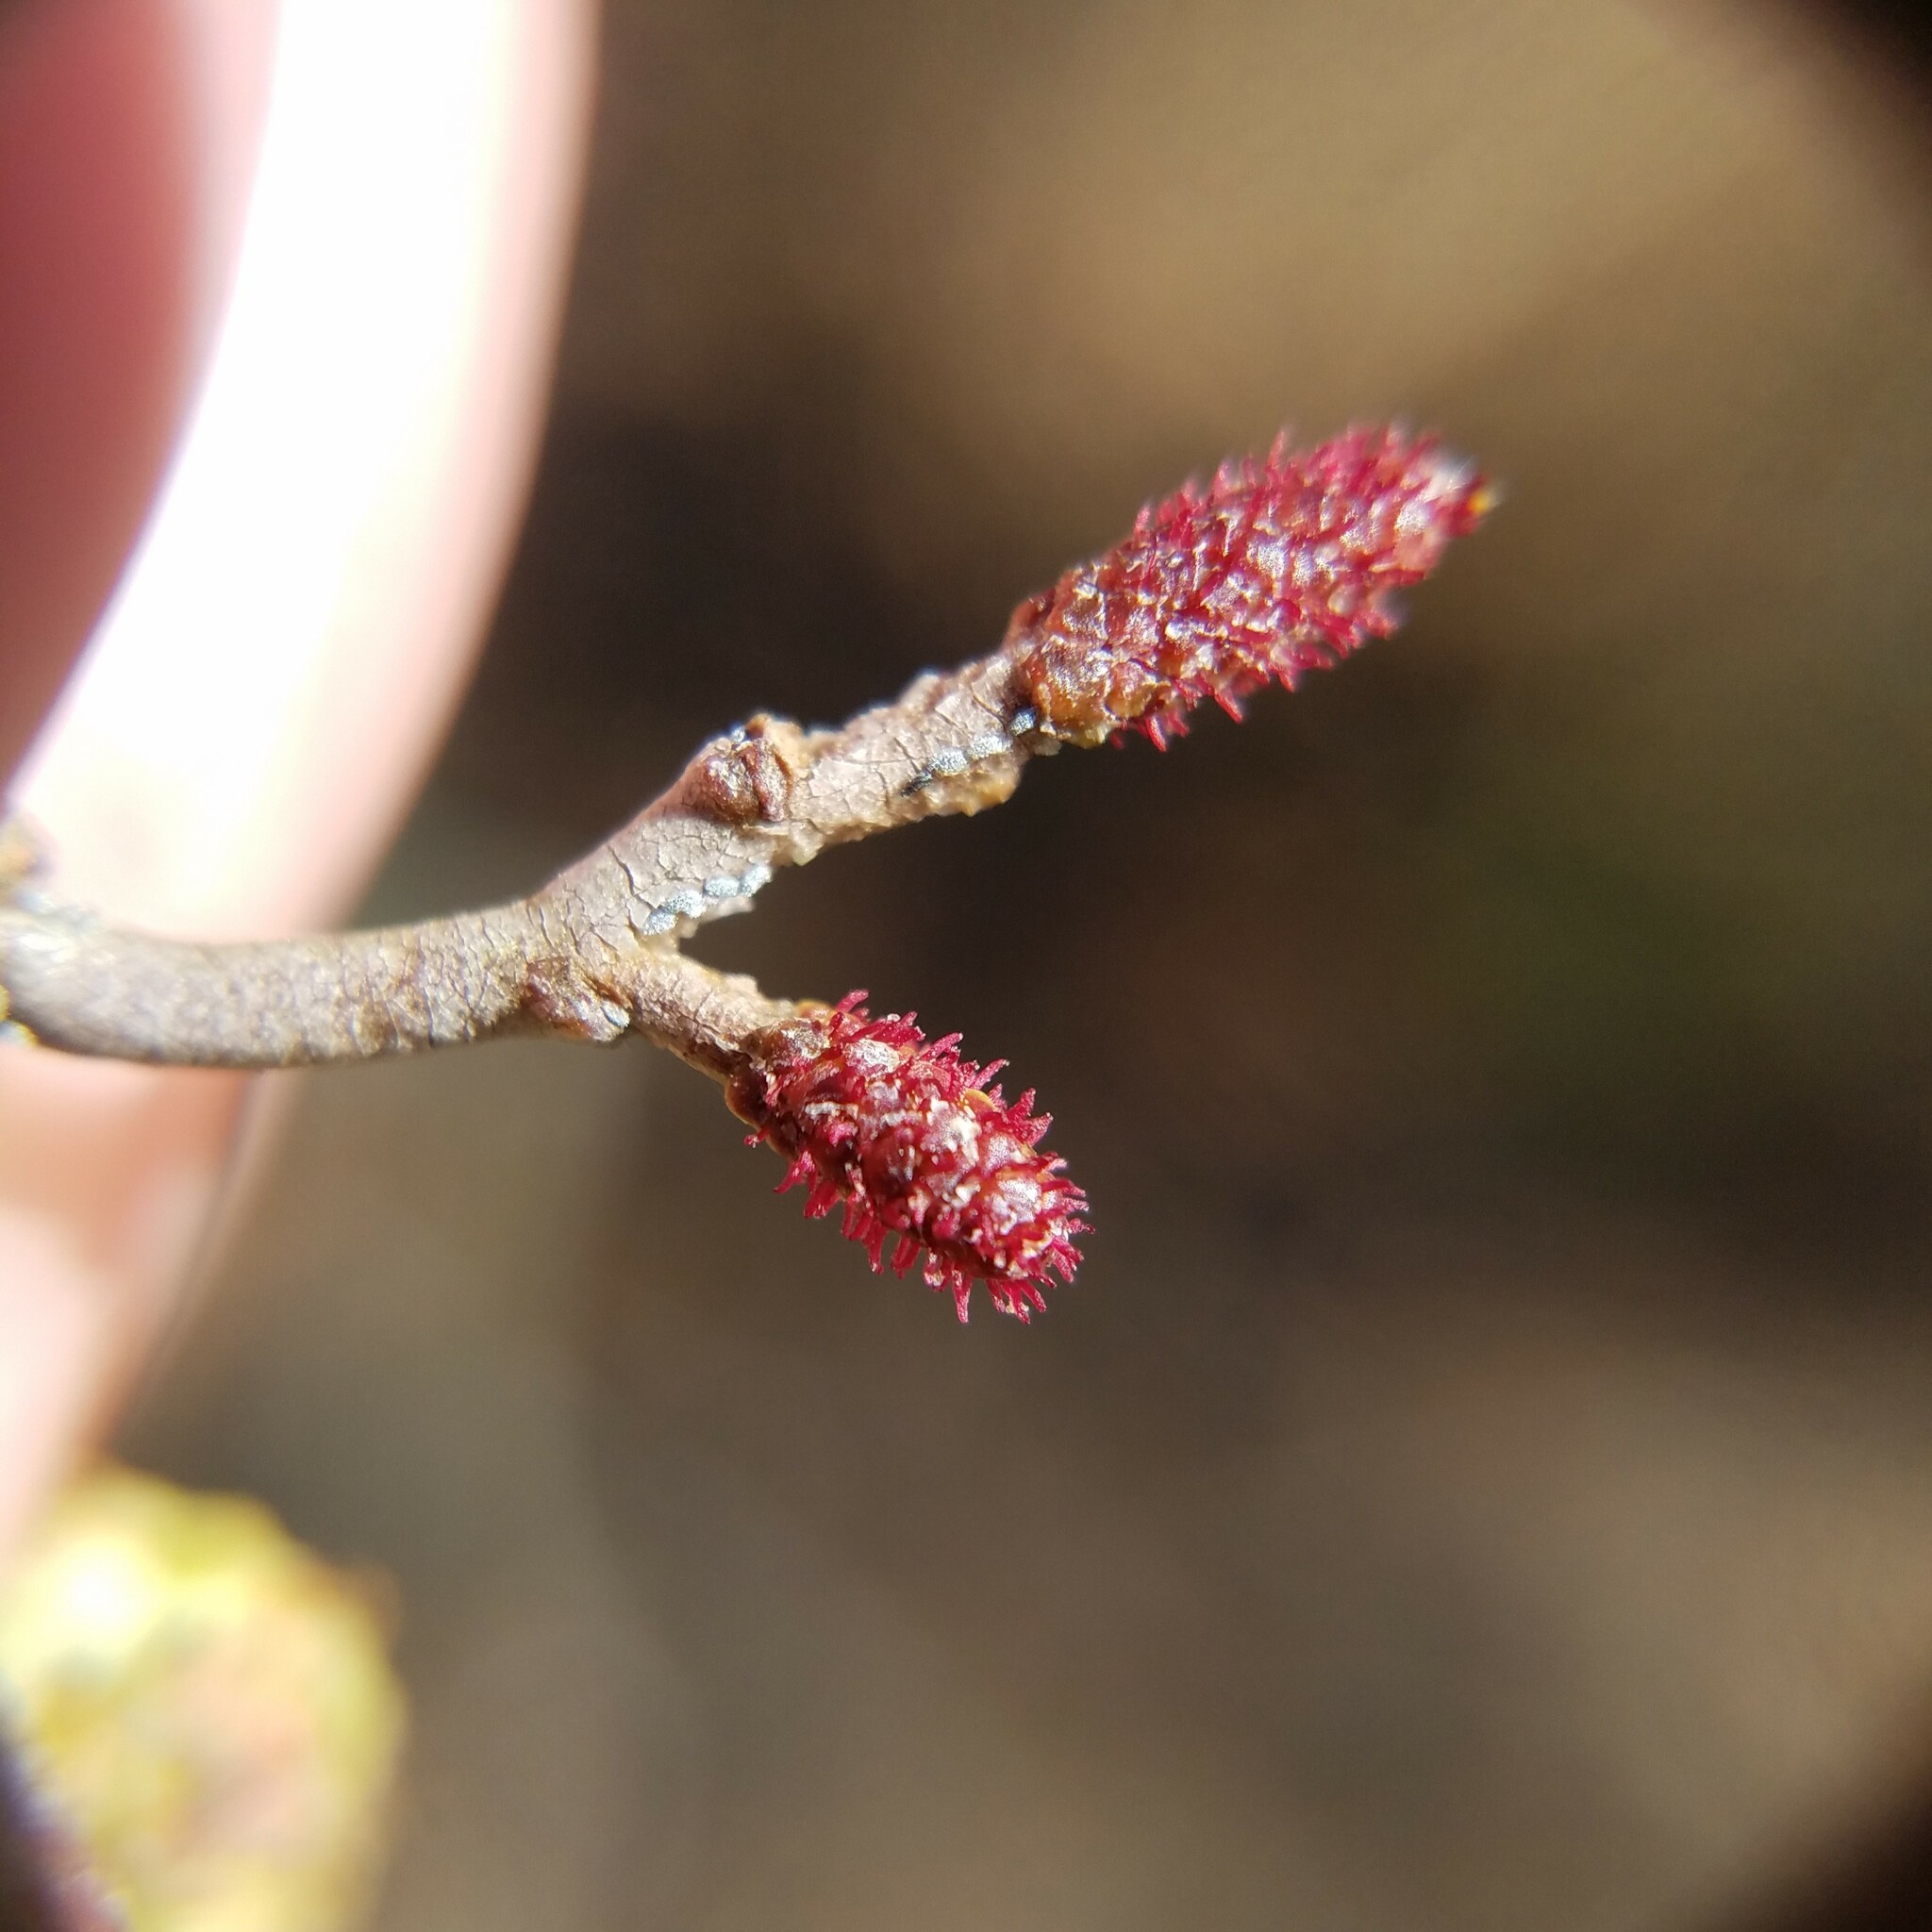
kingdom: Plantae
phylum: Tracheophyta
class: Magnoliopsida
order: Fagales
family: Betulaceae
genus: Alnus
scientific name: Alnus serrulata
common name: Hazel alder
